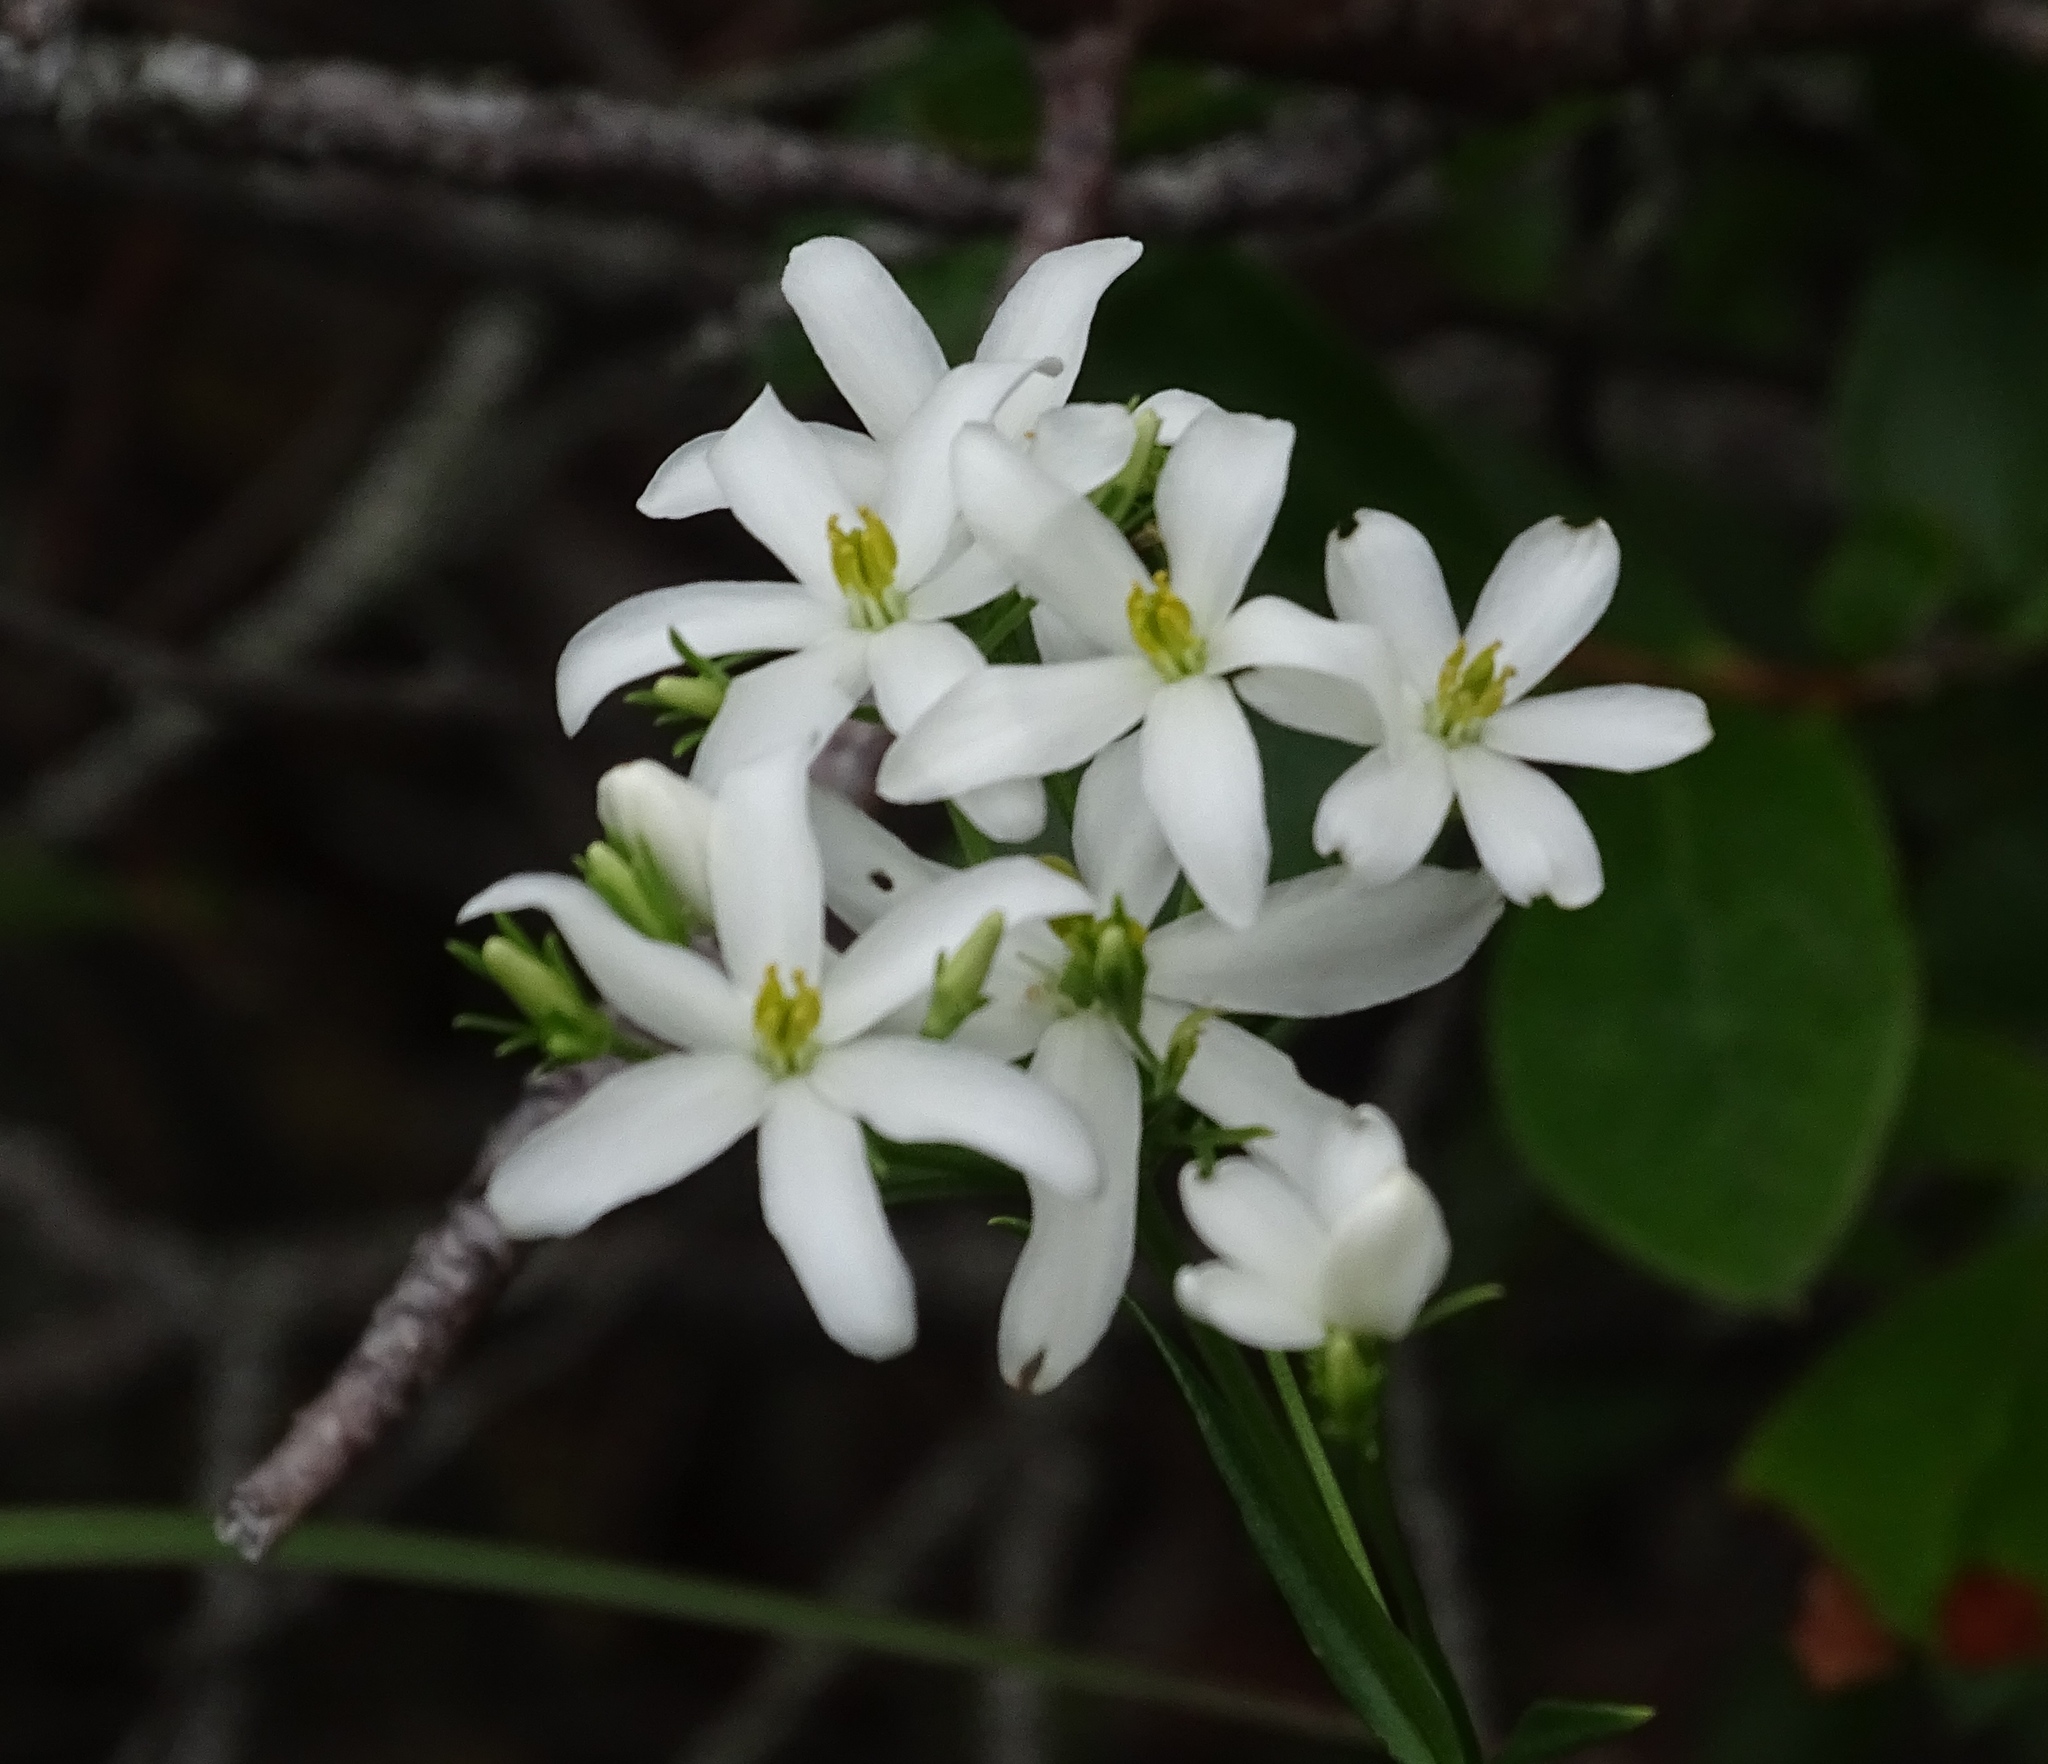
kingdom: Plantae
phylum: Tracheophyta
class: Magnoliopsida
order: Gentianales
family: Gentianaceae
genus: Sabatia
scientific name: Sabatia difformis
